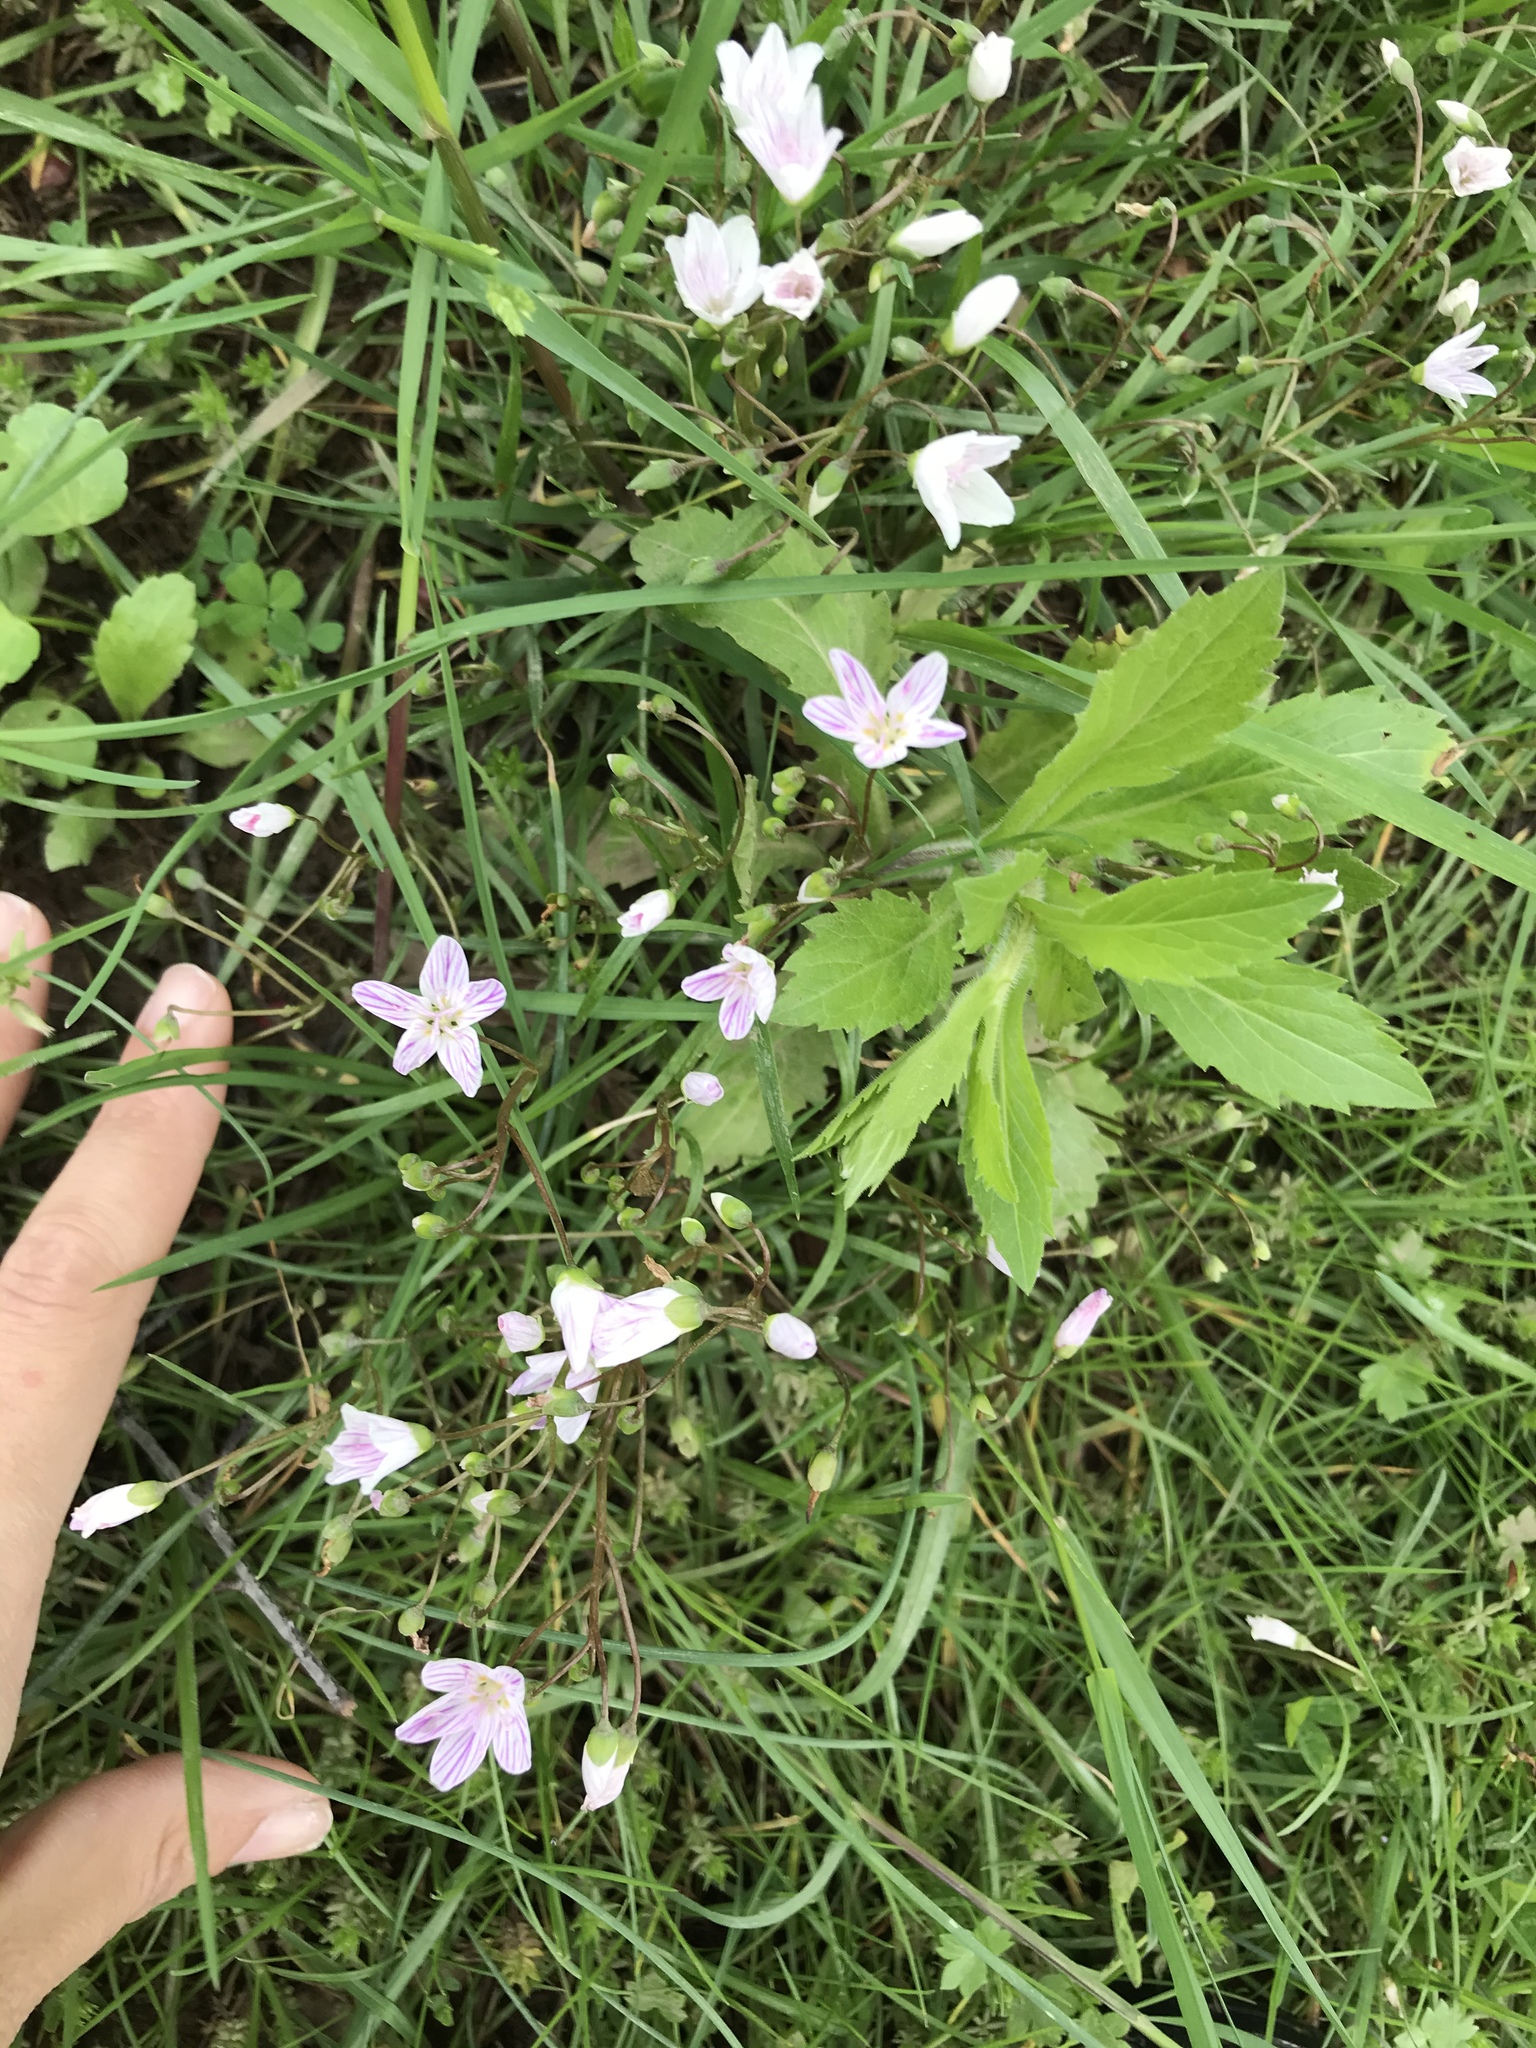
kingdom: Plantae
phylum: Tracheophyta
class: Magnoliopsida
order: Caryophyllales
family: Montiaceae
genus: Claytonia
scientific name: Claytonia virginica
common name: Virginia springbeauty
